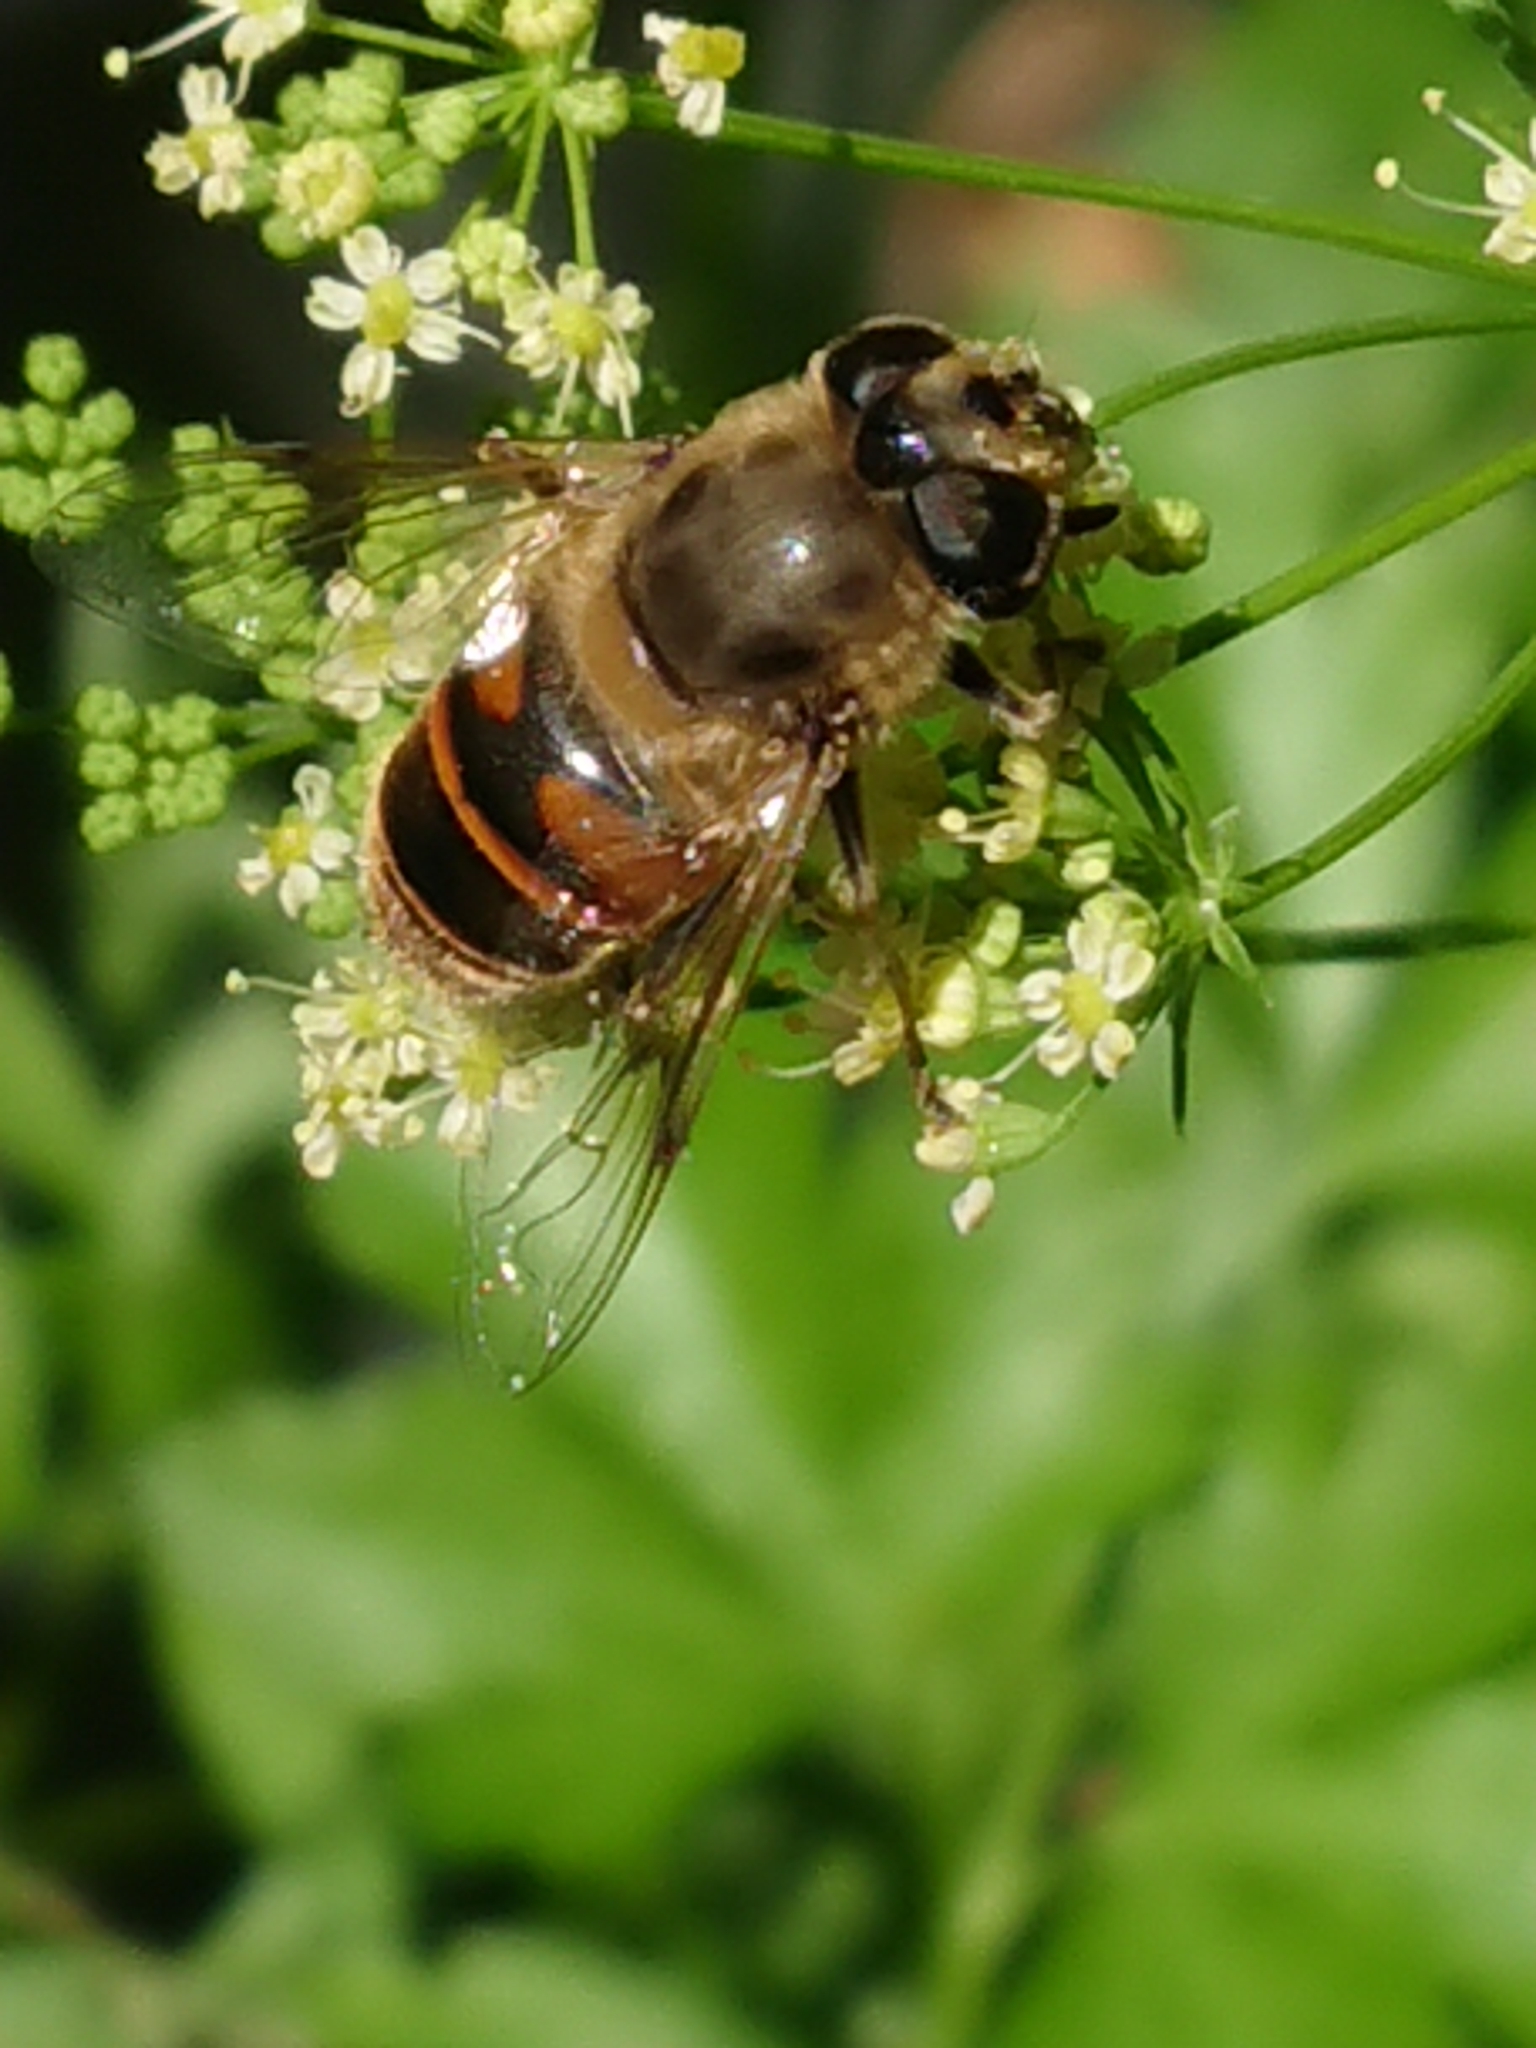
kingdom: Animalia
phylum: Arthropoda
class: Insecta
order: Diptera
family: Syrphidae
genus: Eristalis
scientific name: Eristalis tenax
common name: Drone fly
